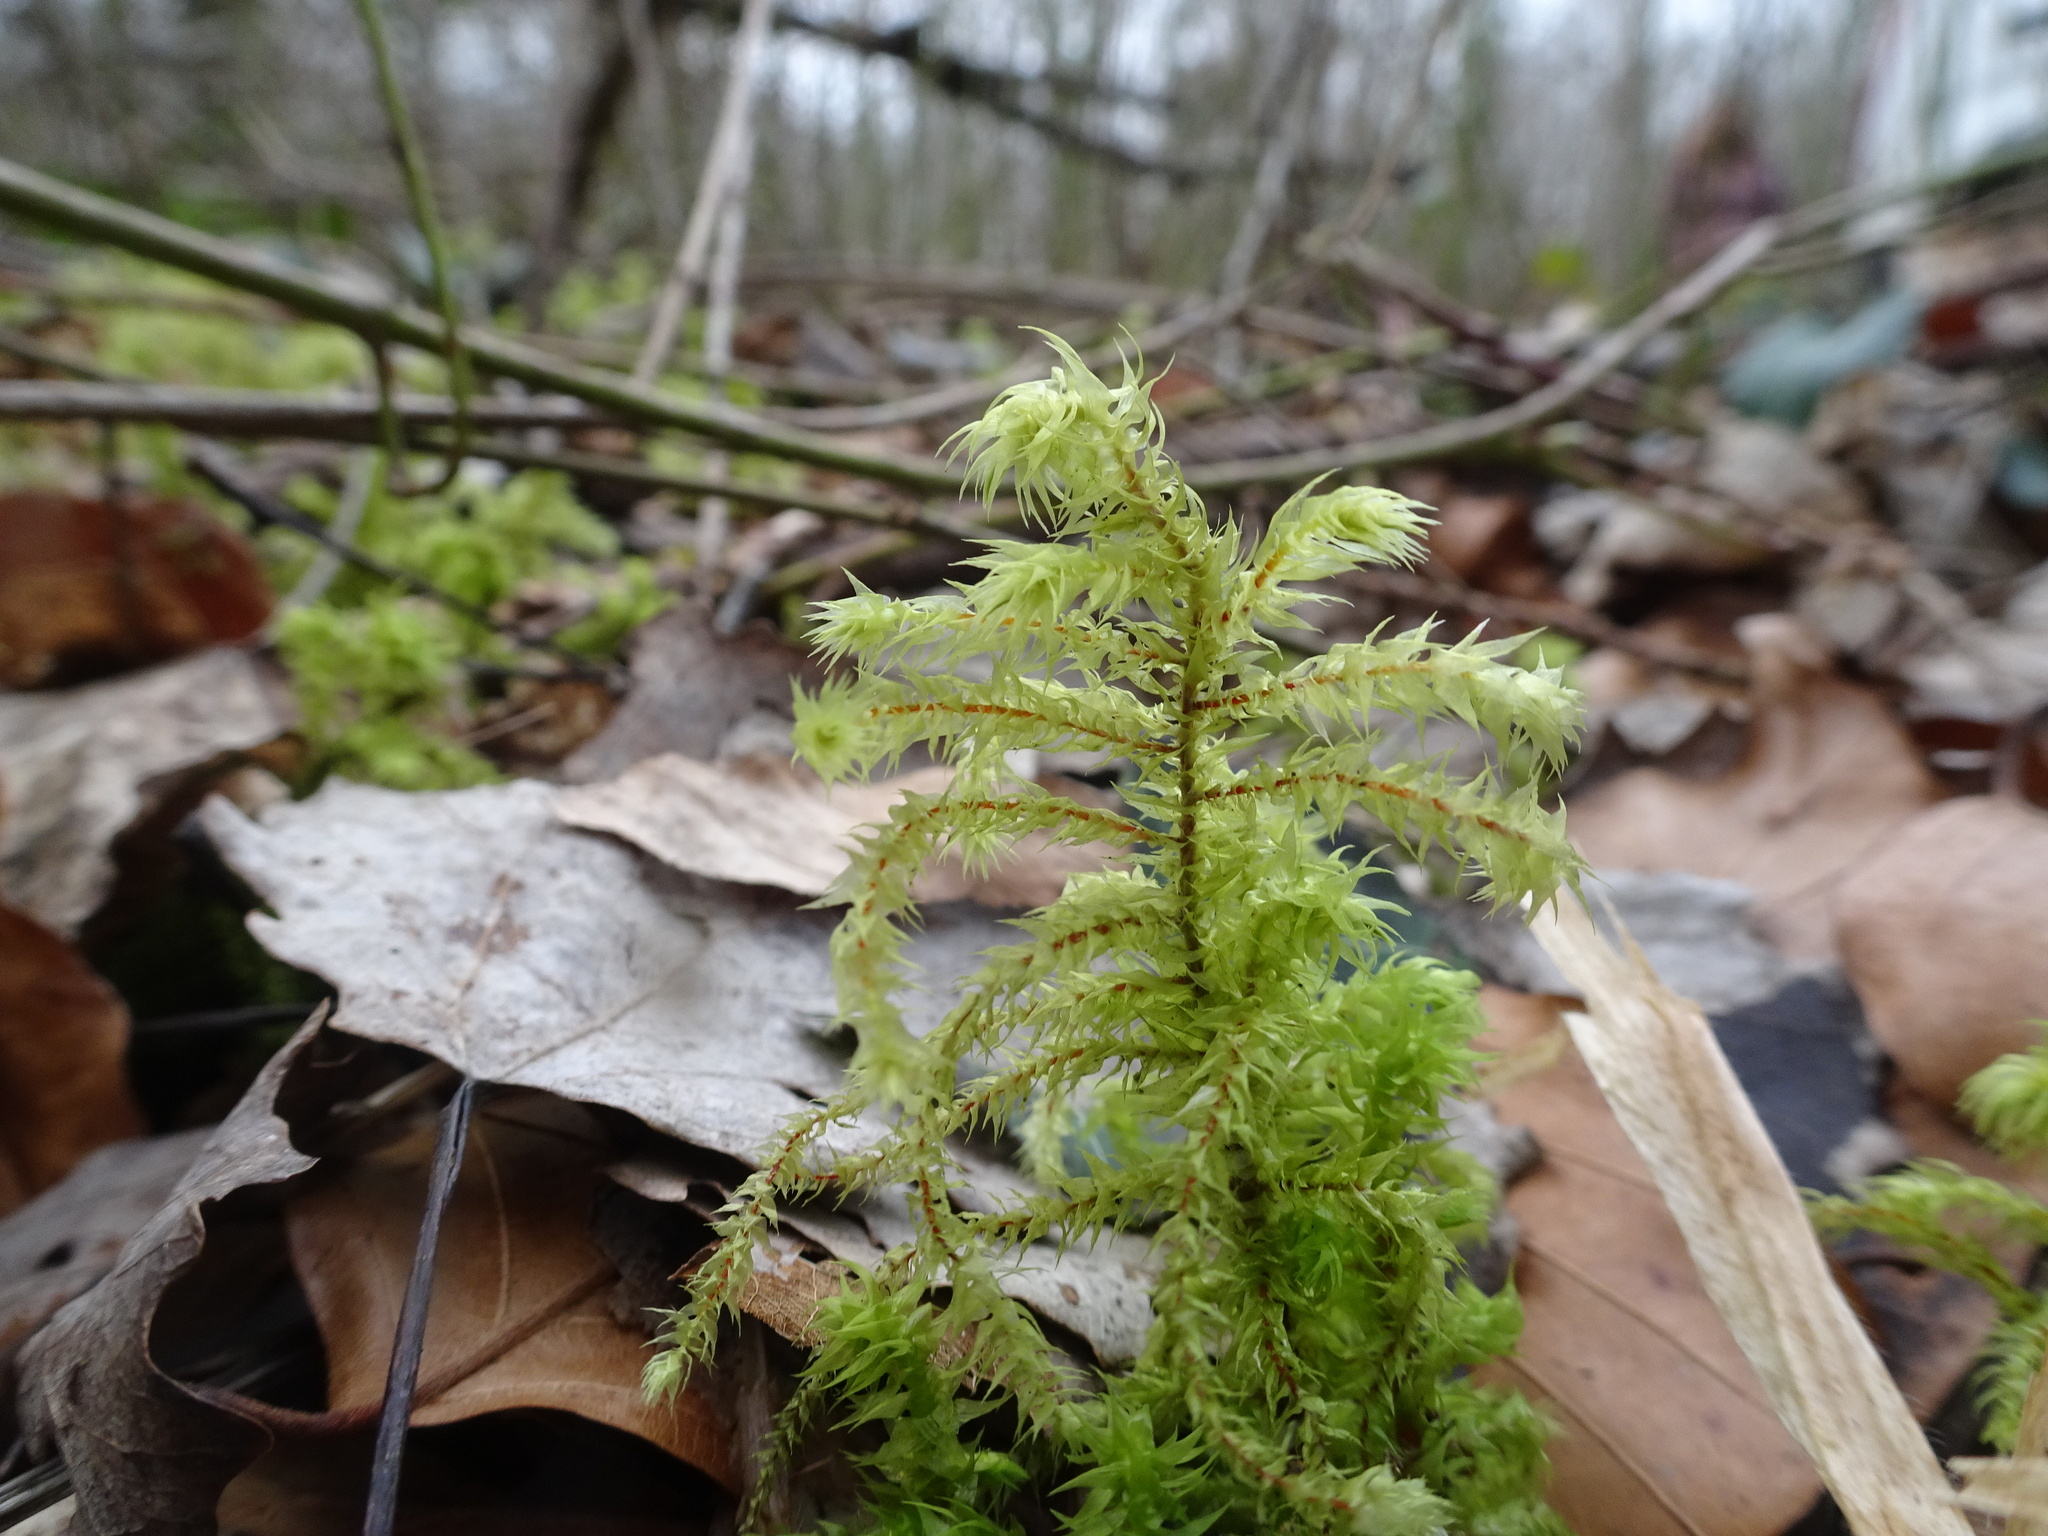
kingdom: Plantae
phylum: Bryophyta
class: Bryopsida
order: Hypnales
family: Hylocomiaceae
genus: Hylocomiadelphus
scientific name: Hylocomiadelphus triquetrus
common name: Rough goose neck moss
